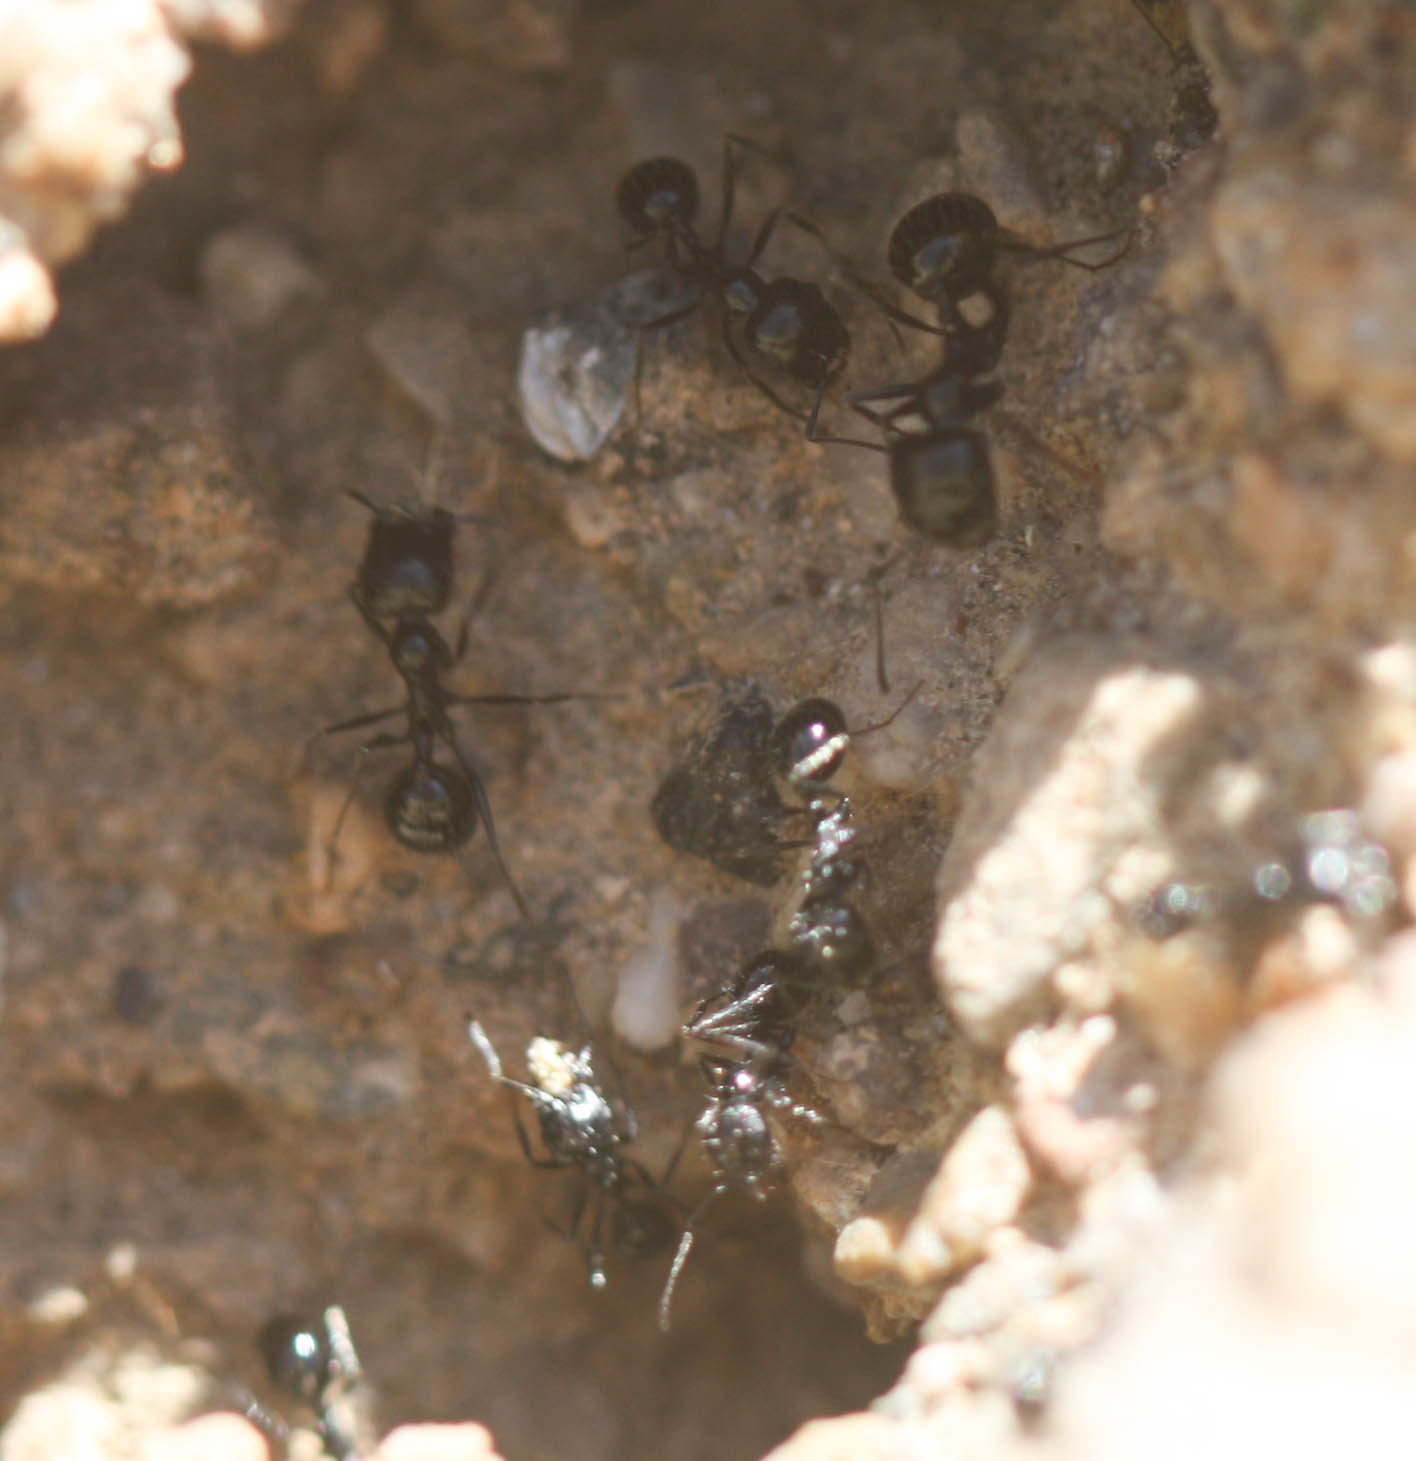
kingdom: Animalia
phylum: Arthropoda
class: Insecta
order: Hymenoptera
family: Formicidae
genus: Messor
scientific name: Messor pergandei
